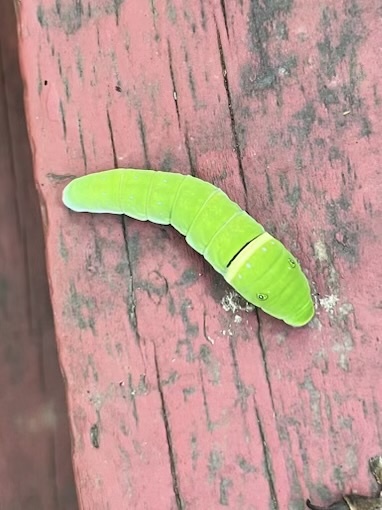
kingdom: Animalia
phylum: Arthropoda
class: Insecta
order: Lepidoptera
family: Papilionidae
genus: Papilio
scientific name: Papilio glaucus
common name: Tiger swallowtail
